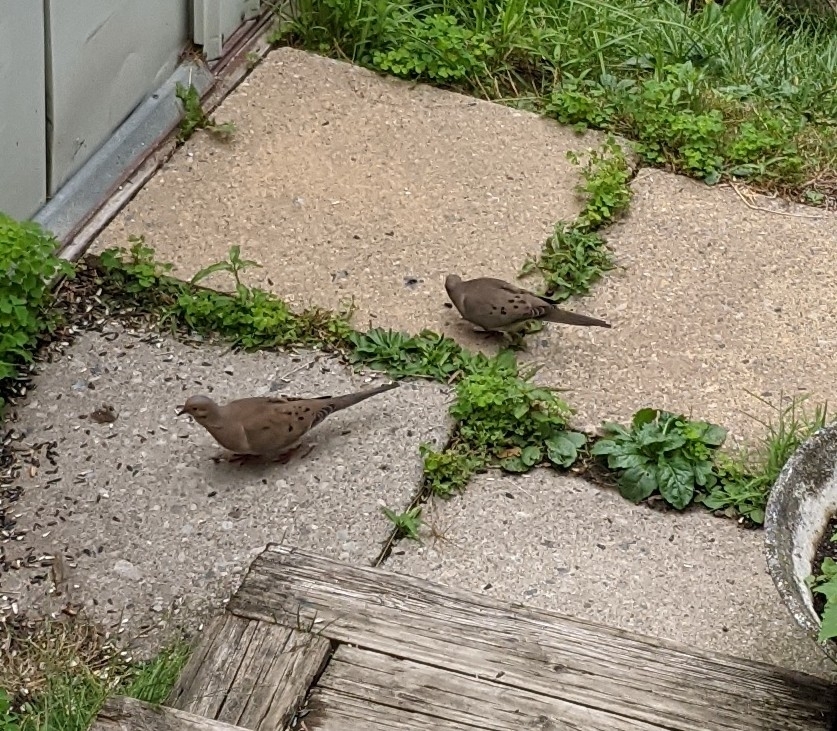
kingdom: Animalia
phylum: Chordata
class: Aves
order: Columbiformes
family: Columbidae
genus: Zenaida
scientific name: Zenaida macroura
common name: Mourning dove
